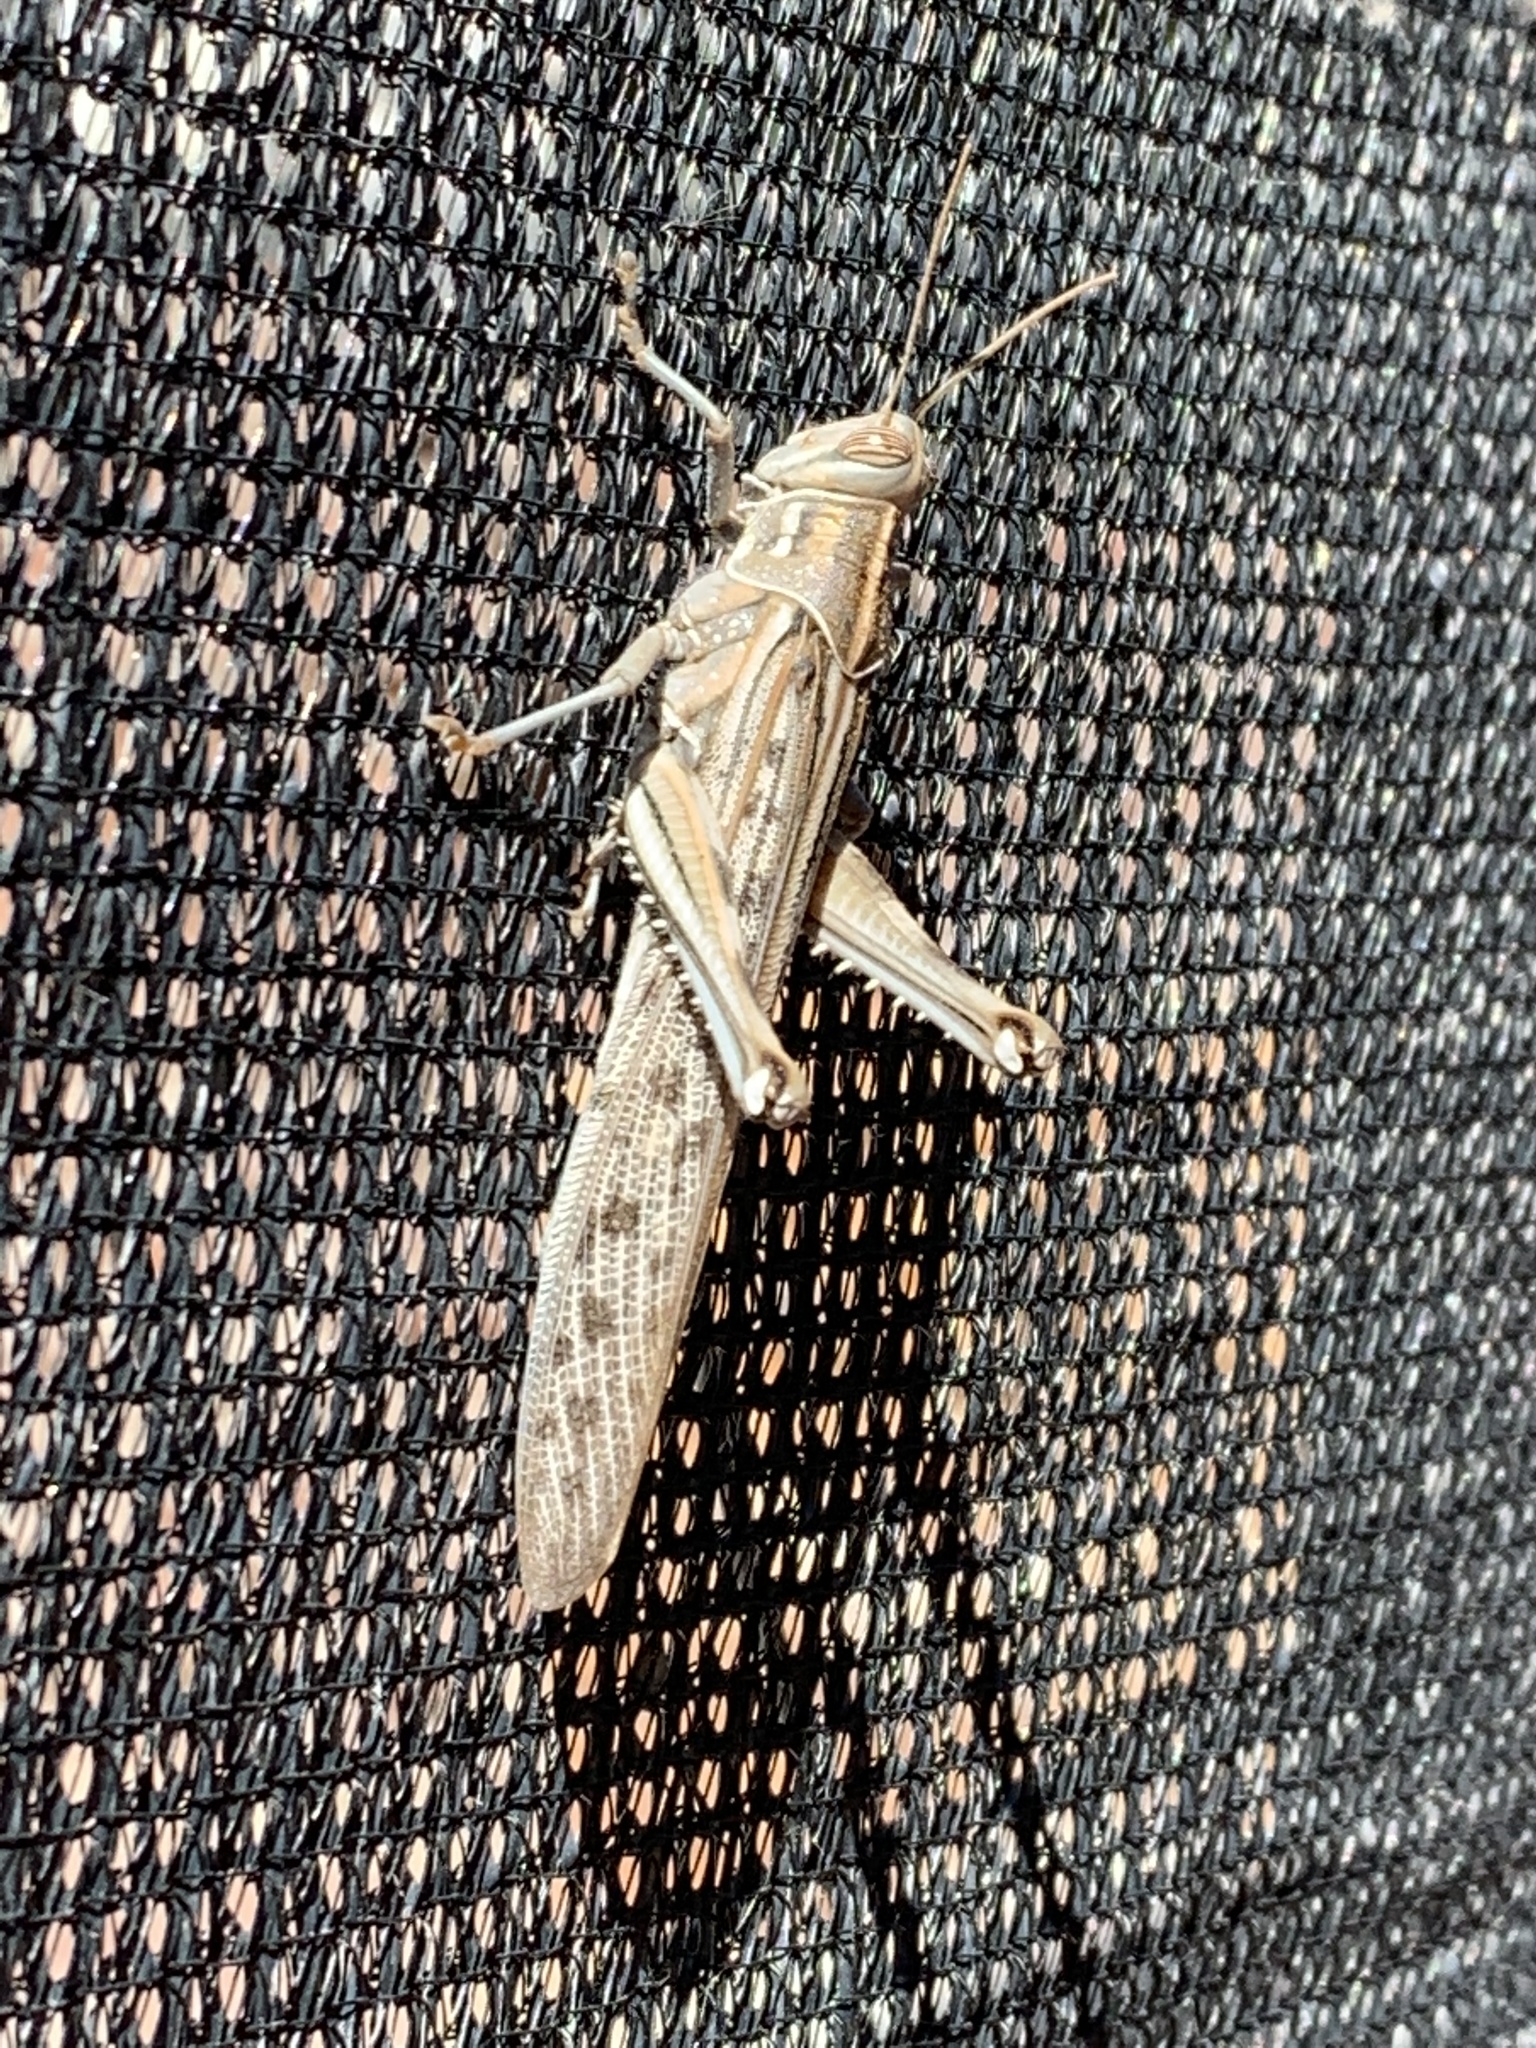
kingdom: Animalia
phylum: Arthropoda
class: Insecta
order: Orthoptera
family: Acrididae
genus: Schistocerca
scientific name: Schistocerca gregaria
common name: Desert locust
